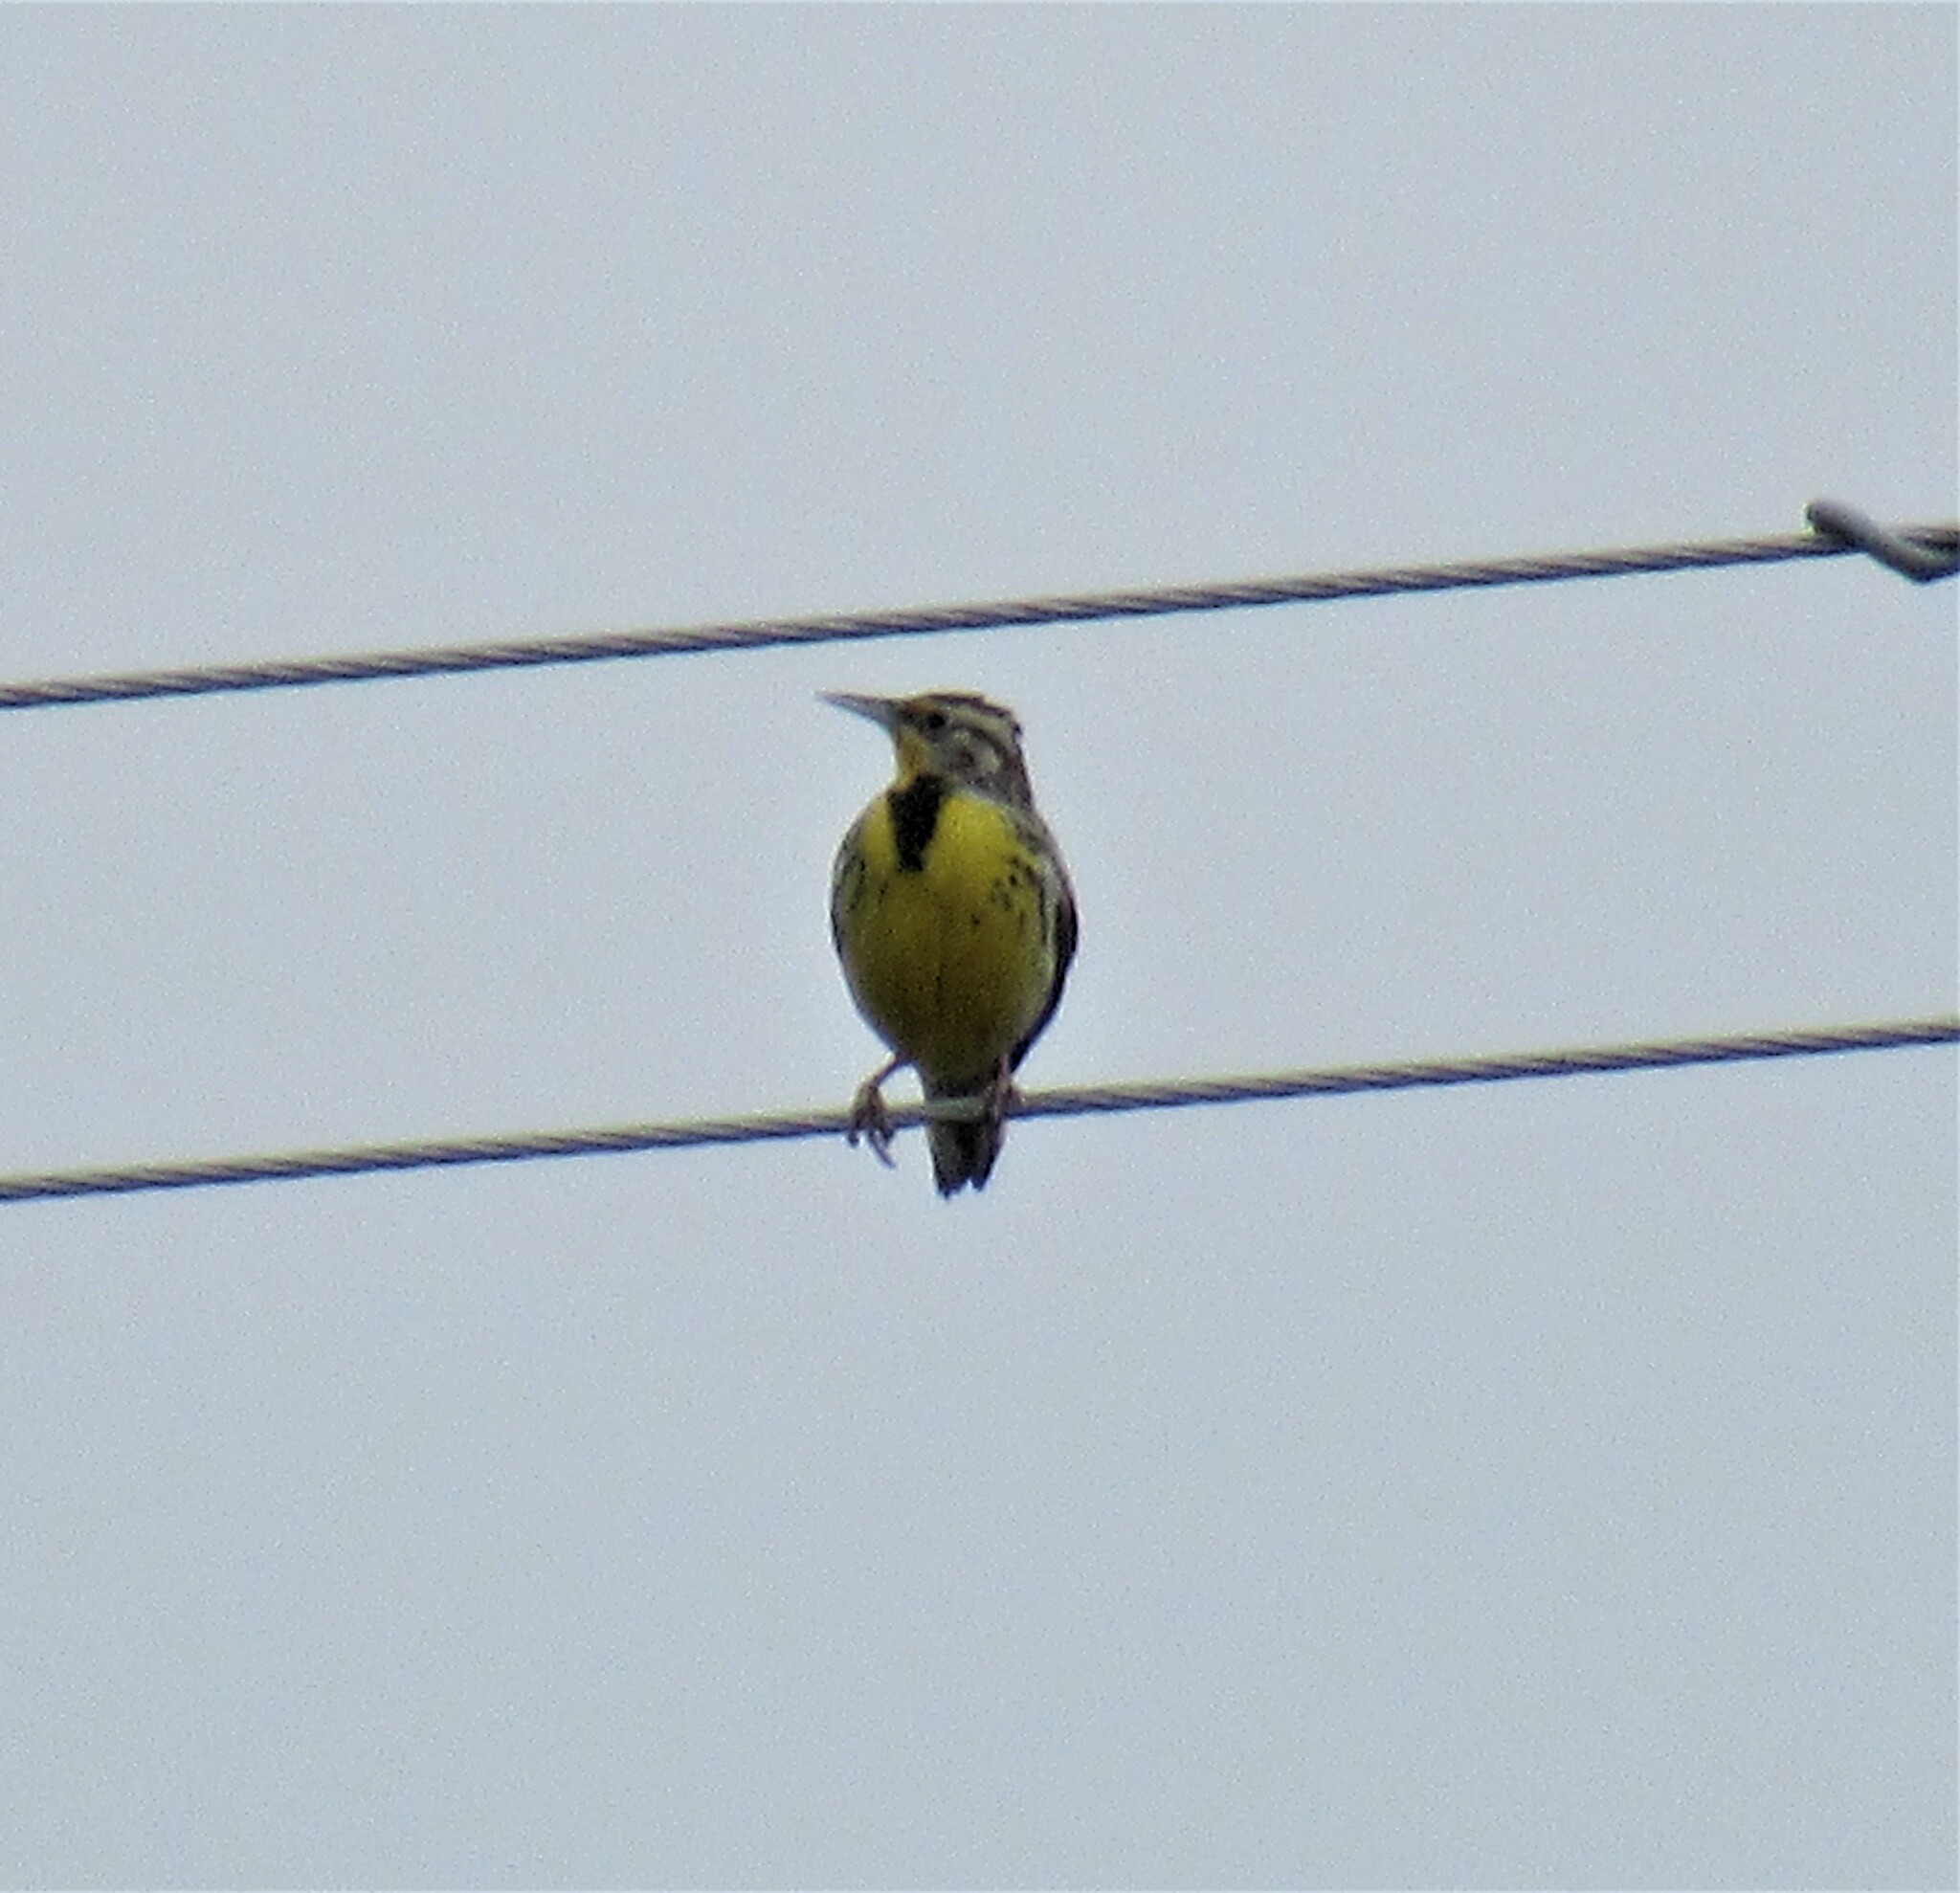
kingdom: Animalia
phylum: Chordata
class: Aves
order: Passeriformes
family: Icteridae
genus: Sturnella
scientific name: Sturnella neglecta
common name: Western meadowlark
